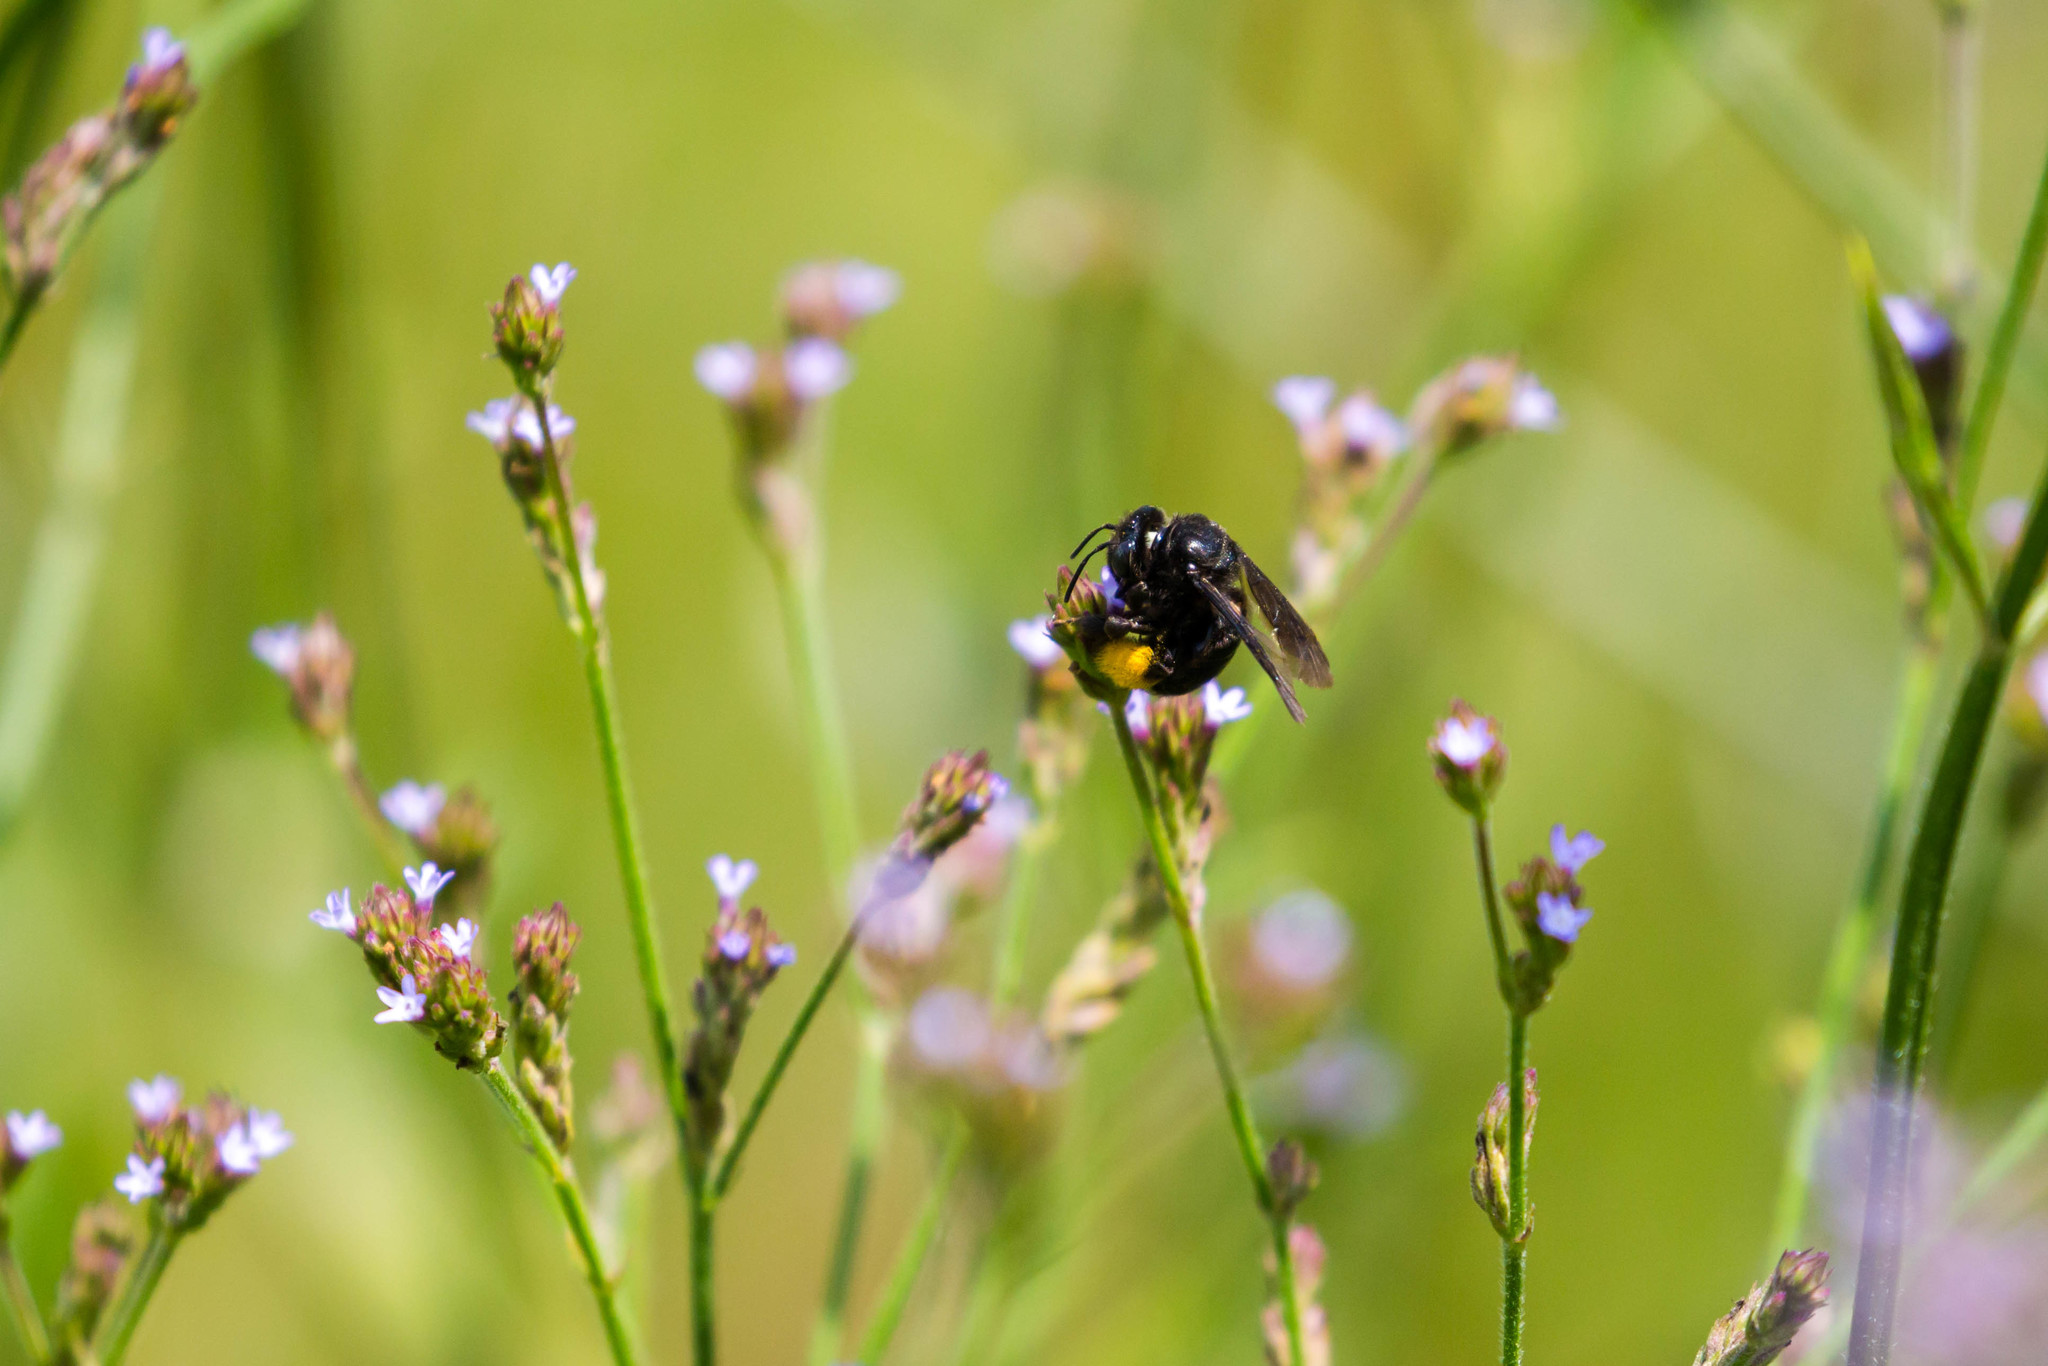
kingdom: Animalia
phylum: Arthropoda
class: Insecta
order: Hymenoptera
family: Apidae
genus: Melissodes
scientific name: Melissodes bimaculatus
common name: Two-spotted long-horned bee
